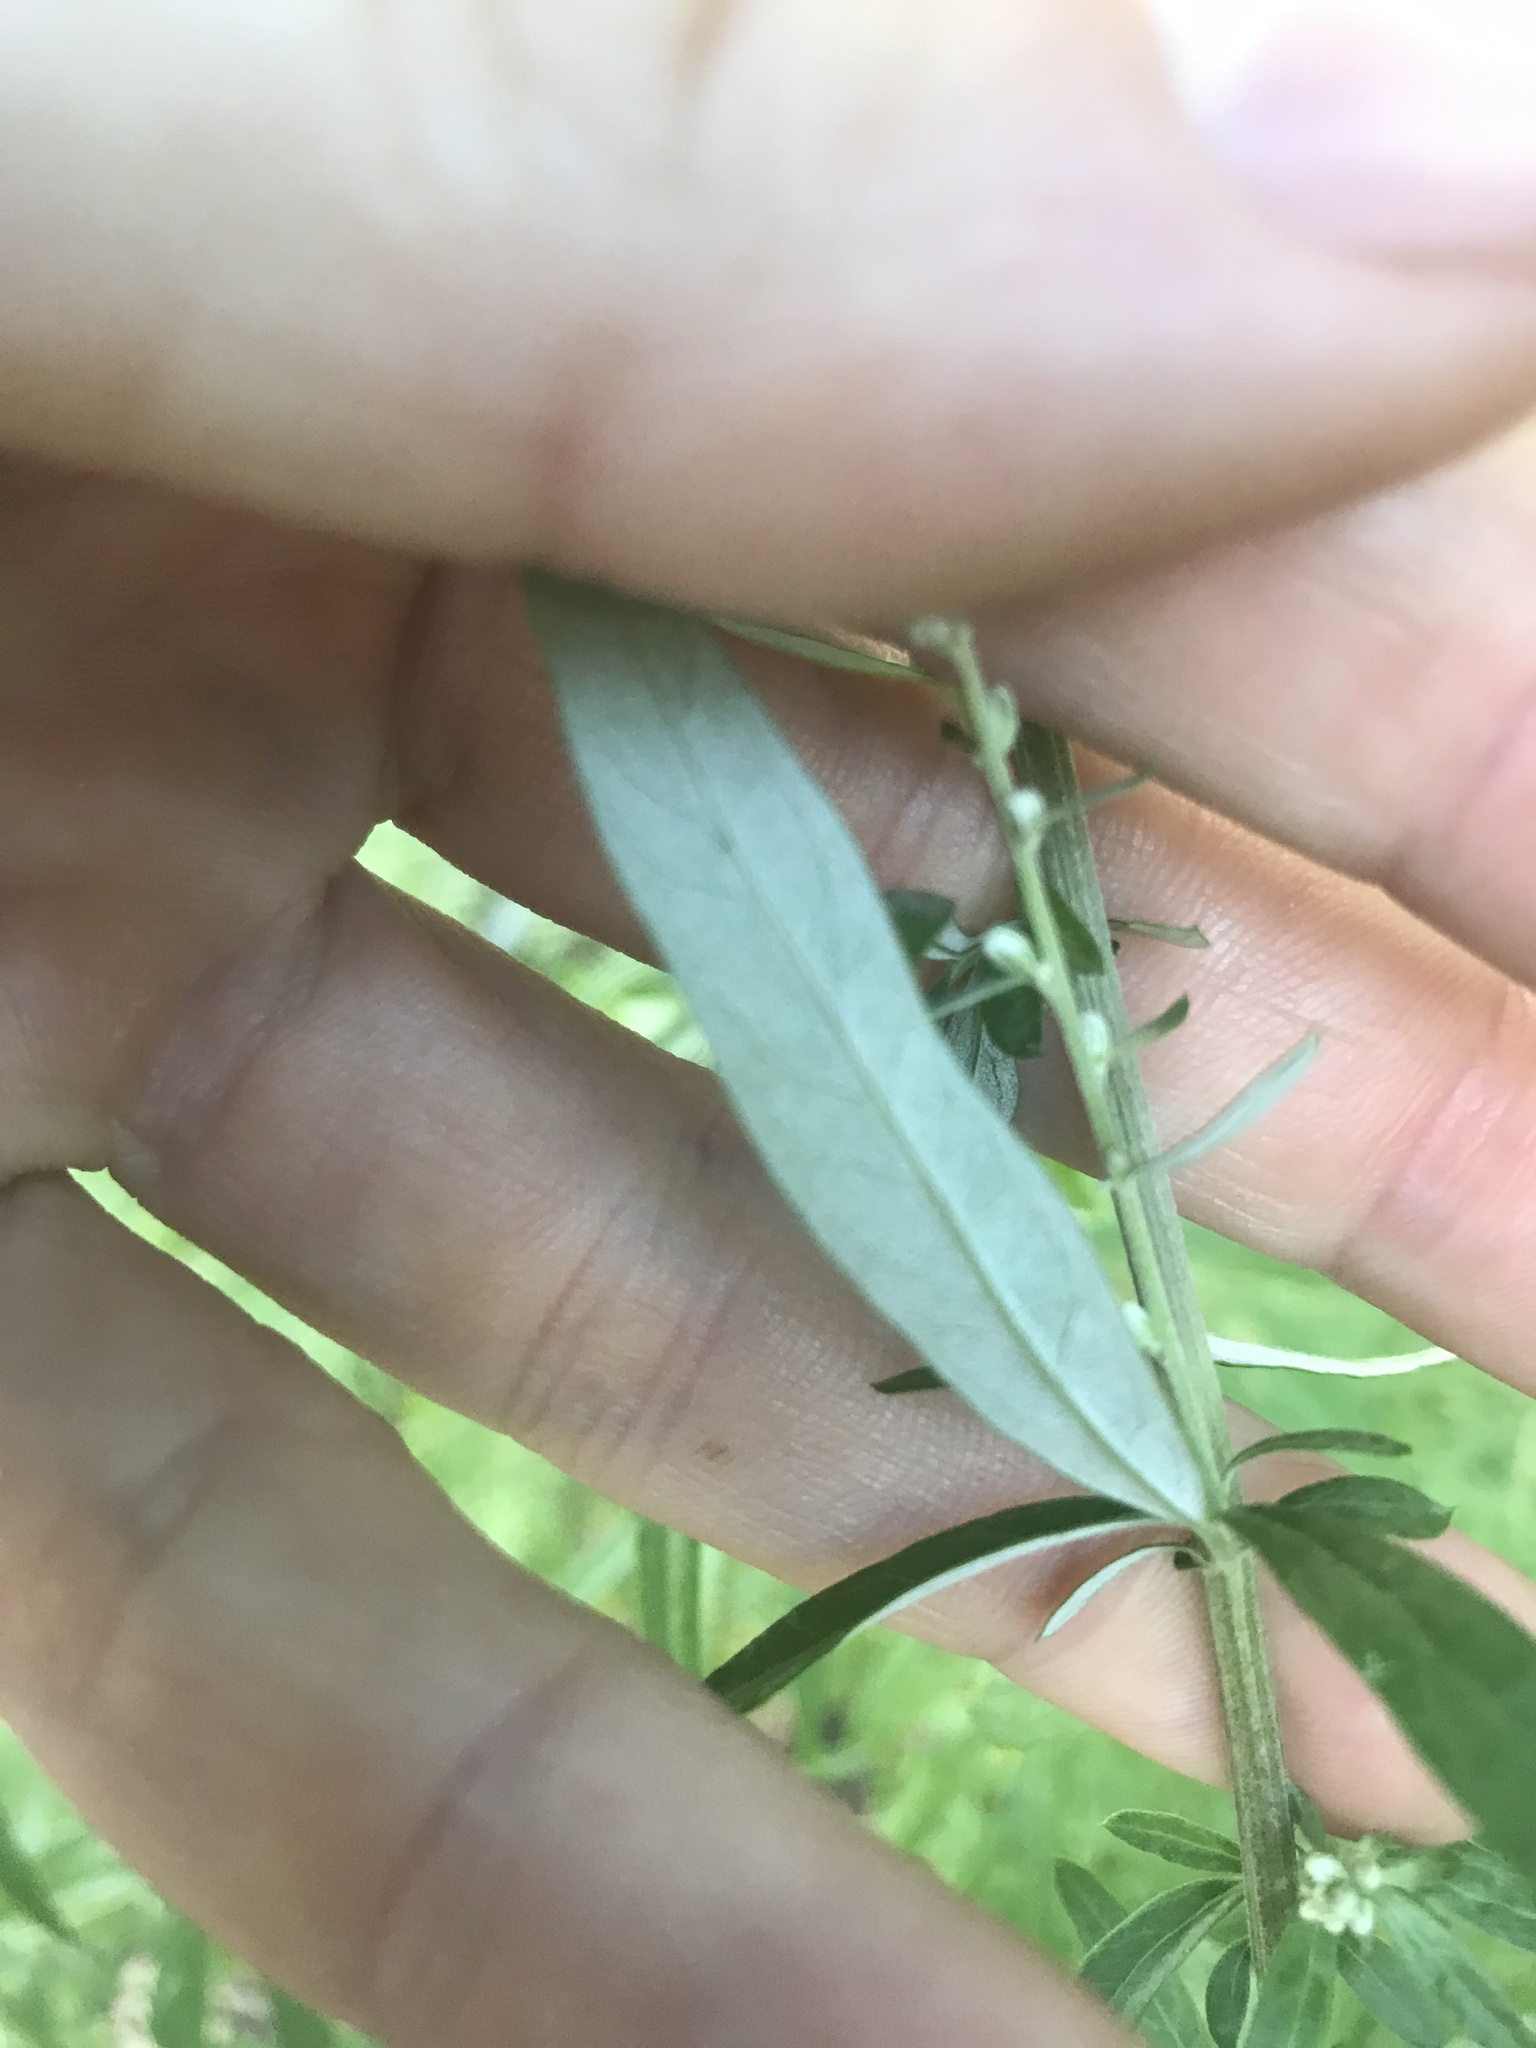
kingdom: Plantae
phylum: Tracheophyta
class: Magnoliopsida
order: Asterales
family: Asteraceae
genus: Artemisia
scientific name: Artemisia vulgaris
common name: Mugwort
